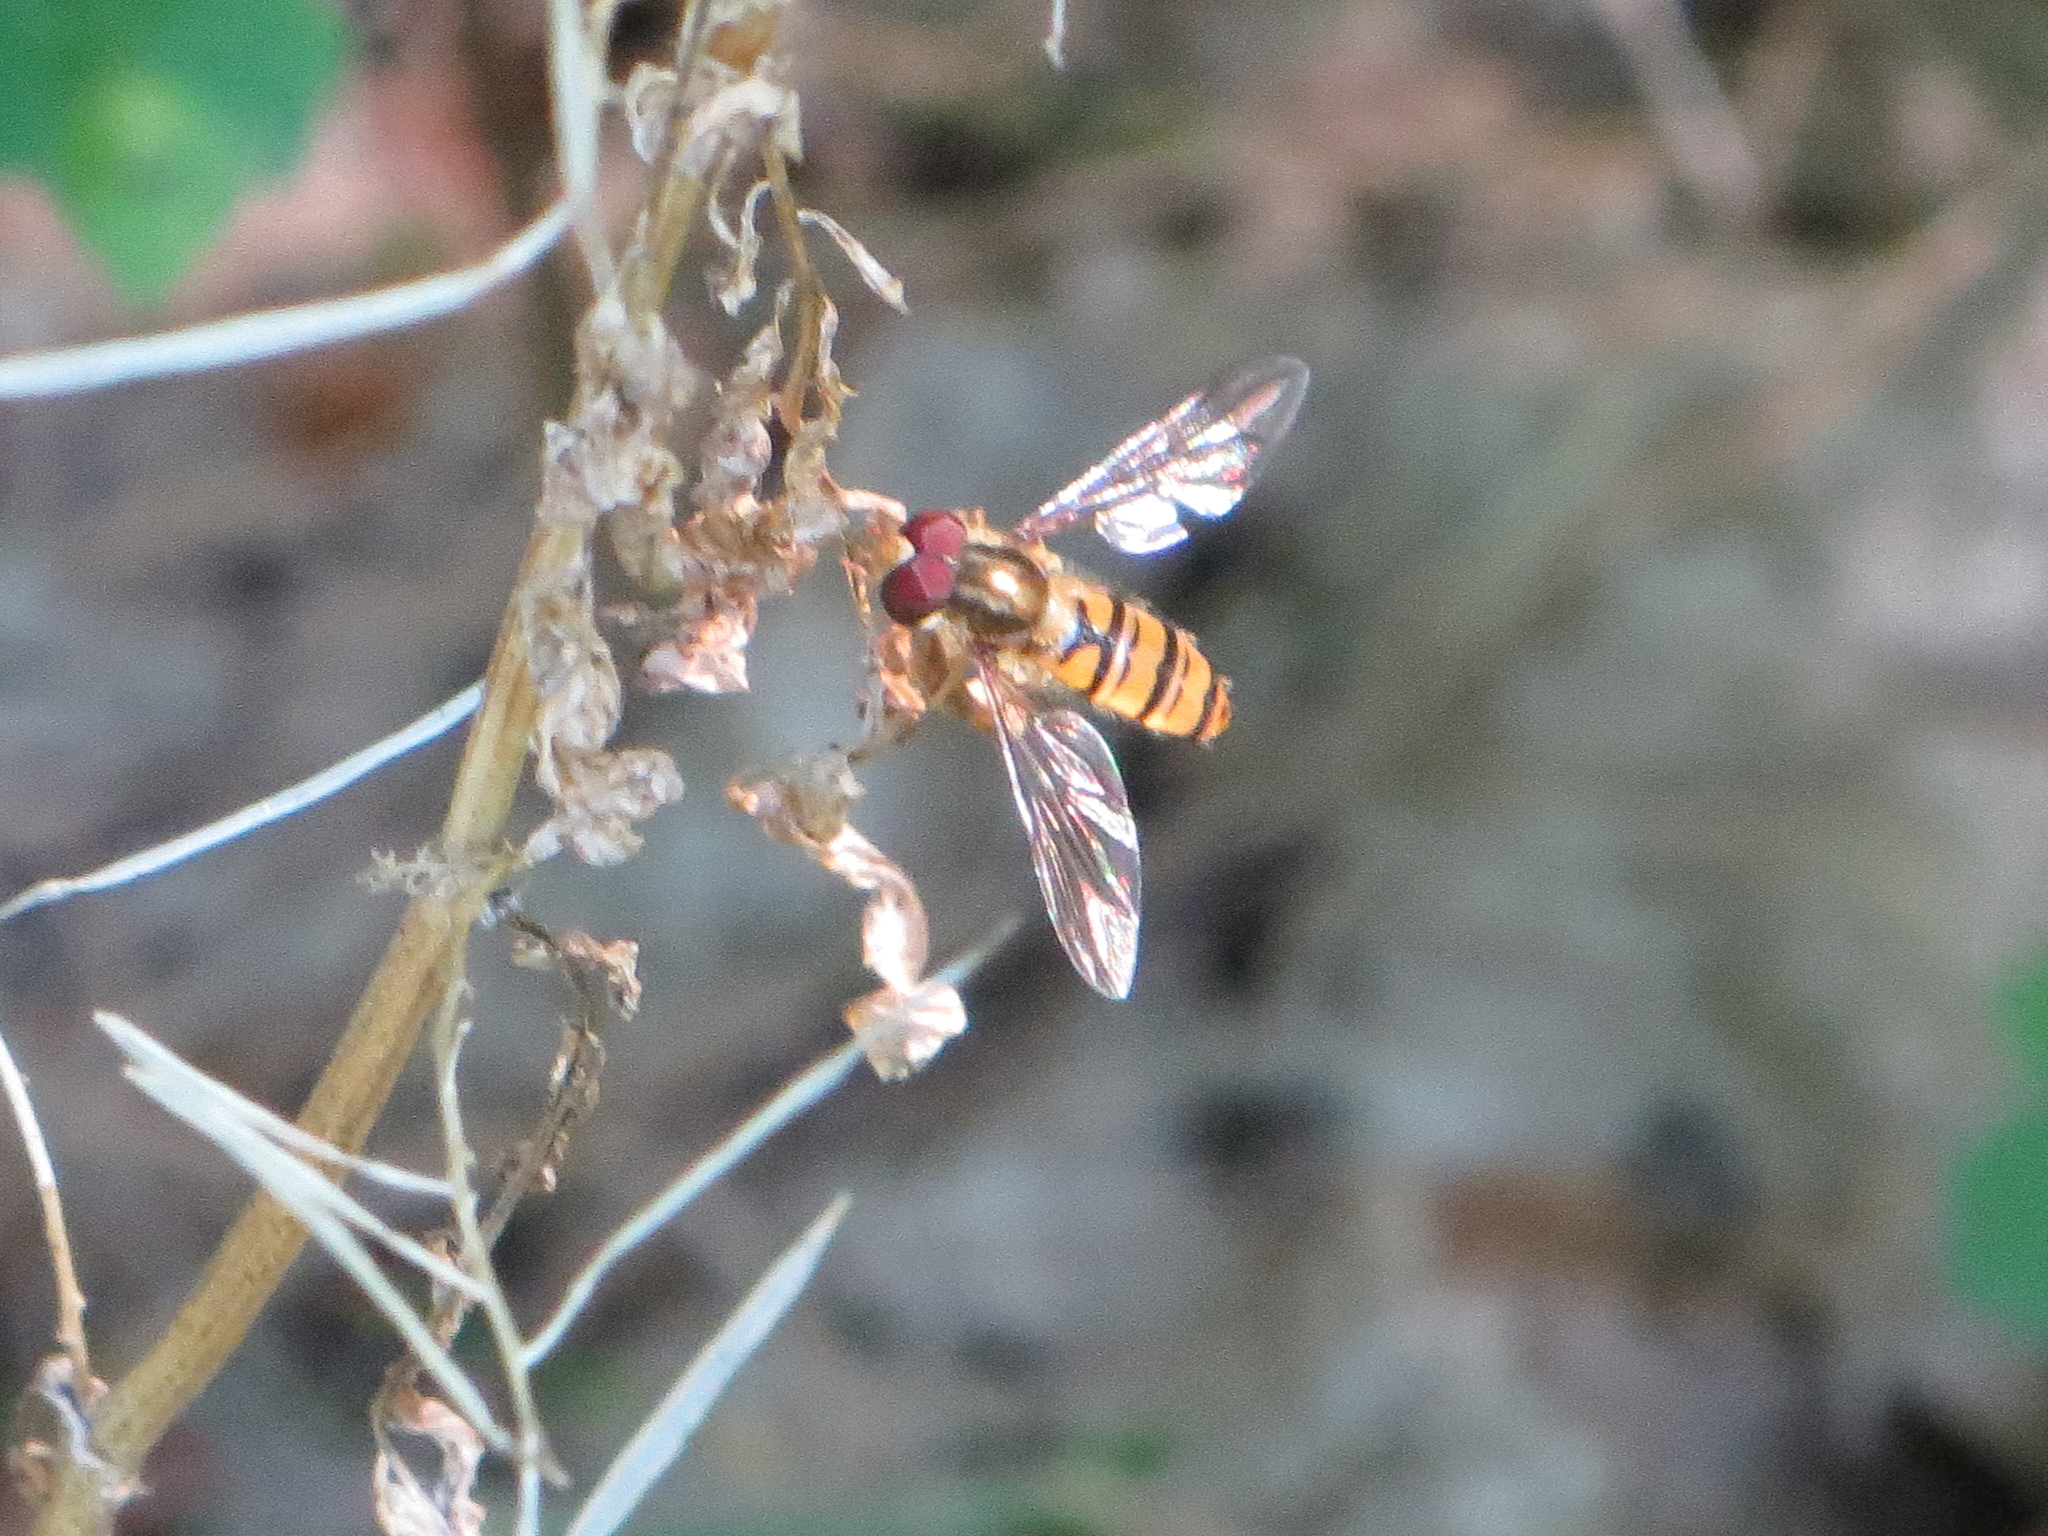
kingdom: Animalia
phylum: Arthropoda
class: Insecta
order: Diptera
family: Syrphidae
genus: Episyrphus
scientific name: Episyrphus balteatus
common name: Marmalade hoverfly
